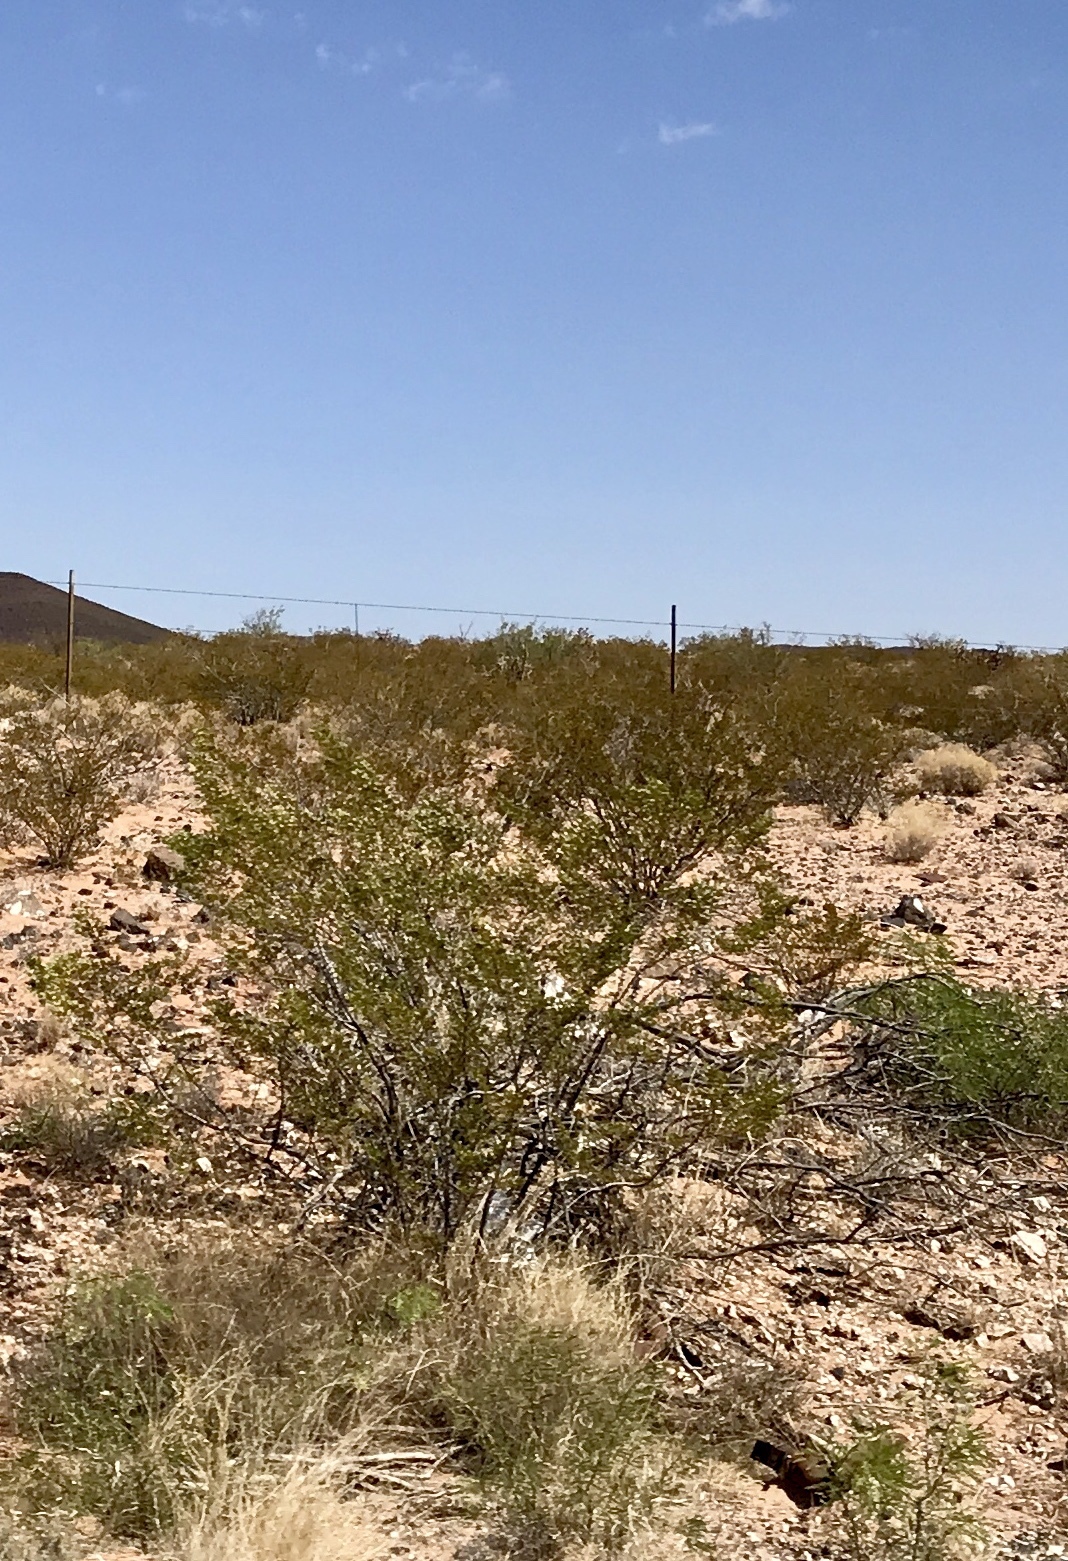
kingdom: Plantae
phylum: Tracheophyta
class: Magnoliopsida
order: Zygophyllales
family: Zygophyllaceae
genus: Larrea
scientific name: Larrea tridentata
